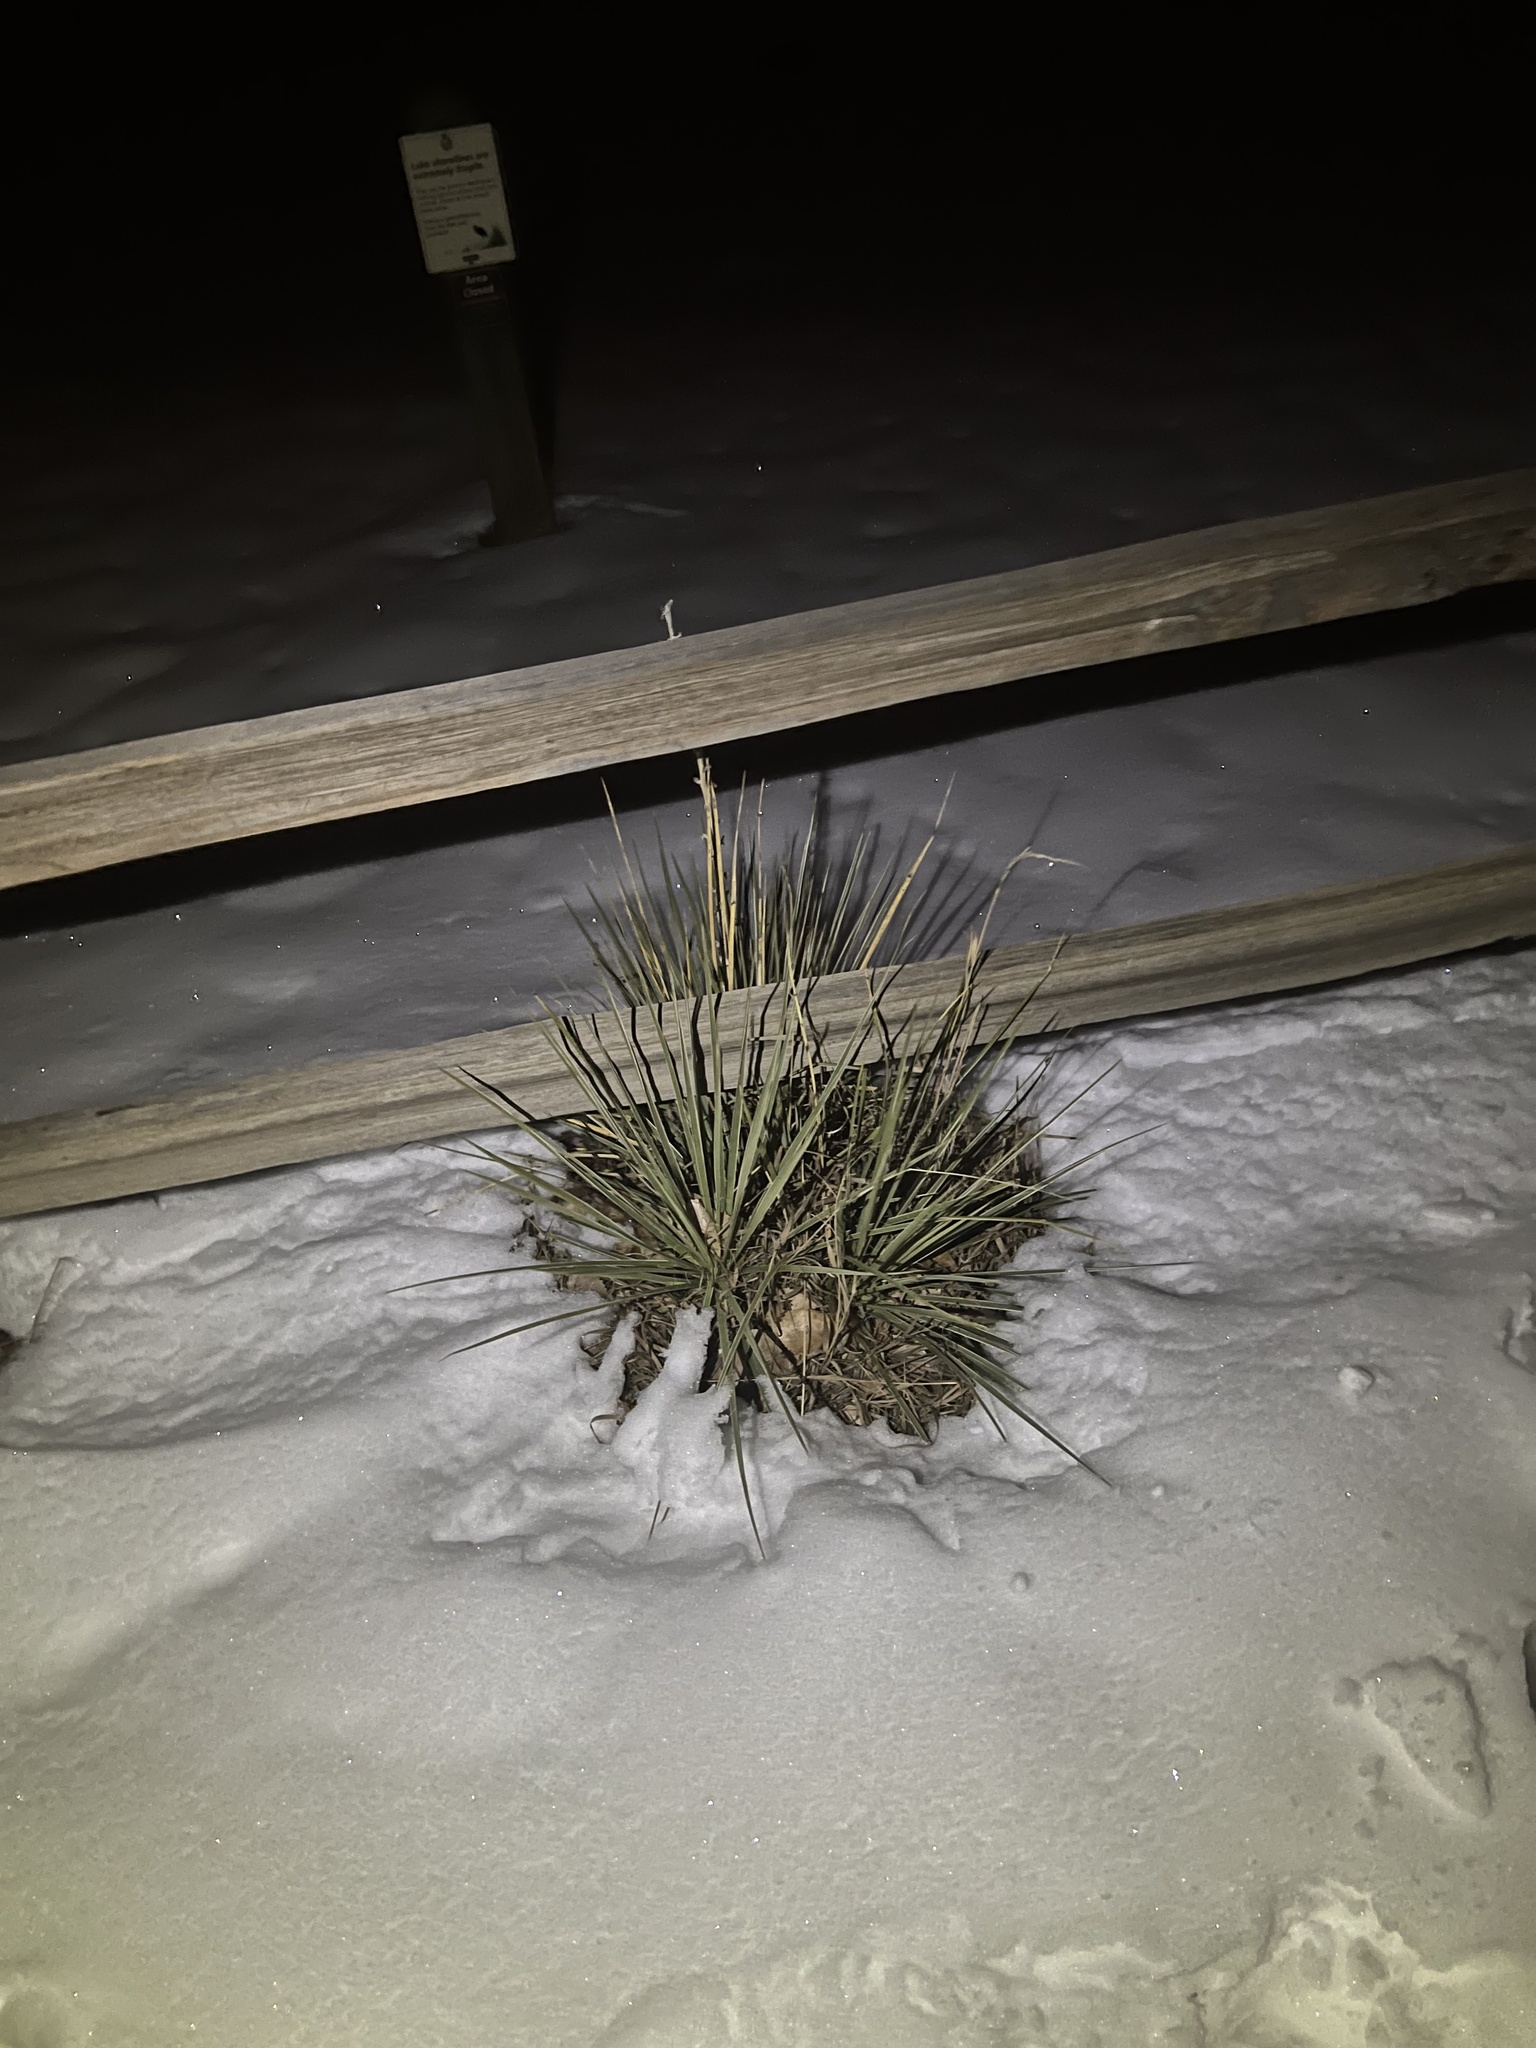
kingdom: Plantae
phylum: Tracheophyta
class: Liliopsida
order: Asparagales
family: Asparagaceae
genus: Yucca
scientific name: Yucca glauca
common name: Great plains yucca
